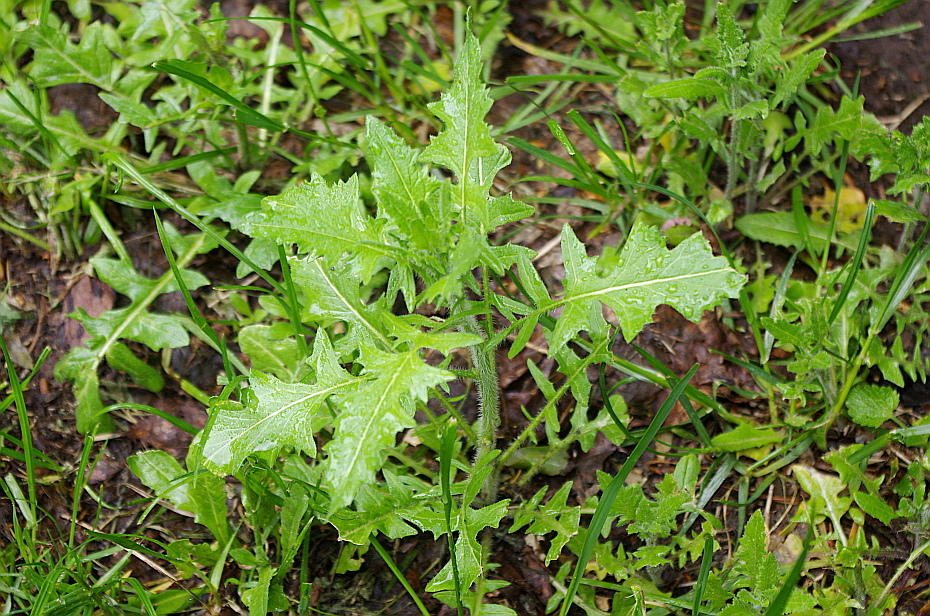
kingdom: Plantae
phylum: Tracheophyta
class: Magnoliopsida
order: Brassicales
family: Brassicaceae
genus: Sisymbrium
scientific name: Sisymbrium loeselii
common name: False london-rocket
